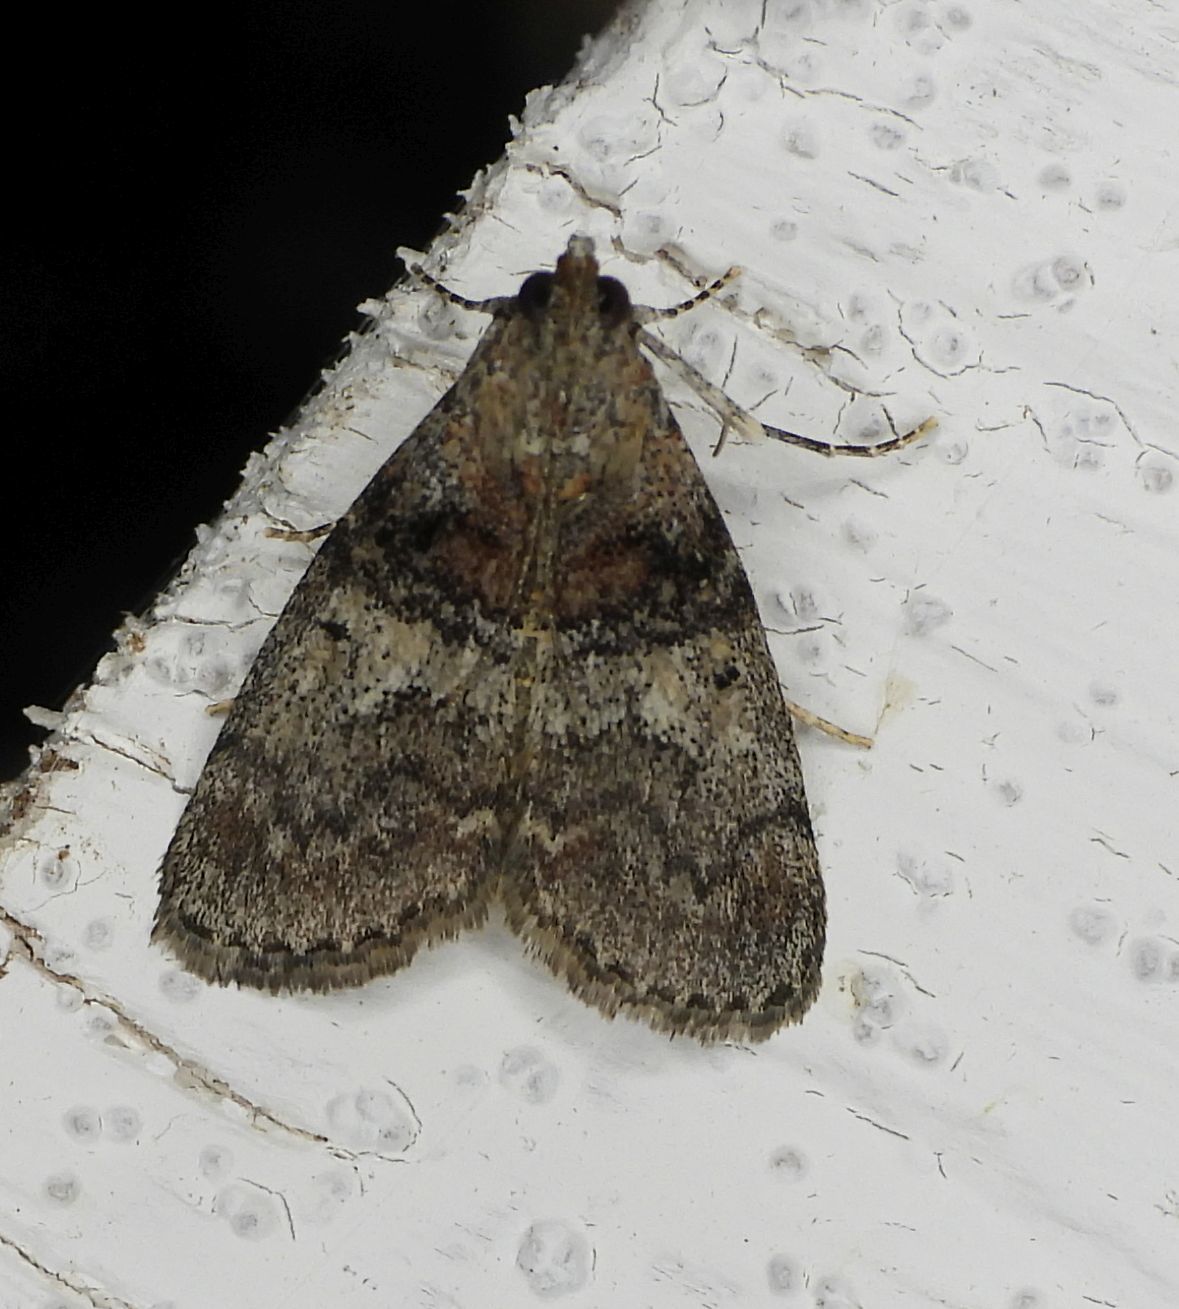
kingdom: Animalia
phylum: Arthropoda
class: Insecta
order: Lepidoptera
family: Pyralidae
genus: Pococera
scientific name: Pococera asperatella
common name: Maple webworm moth
